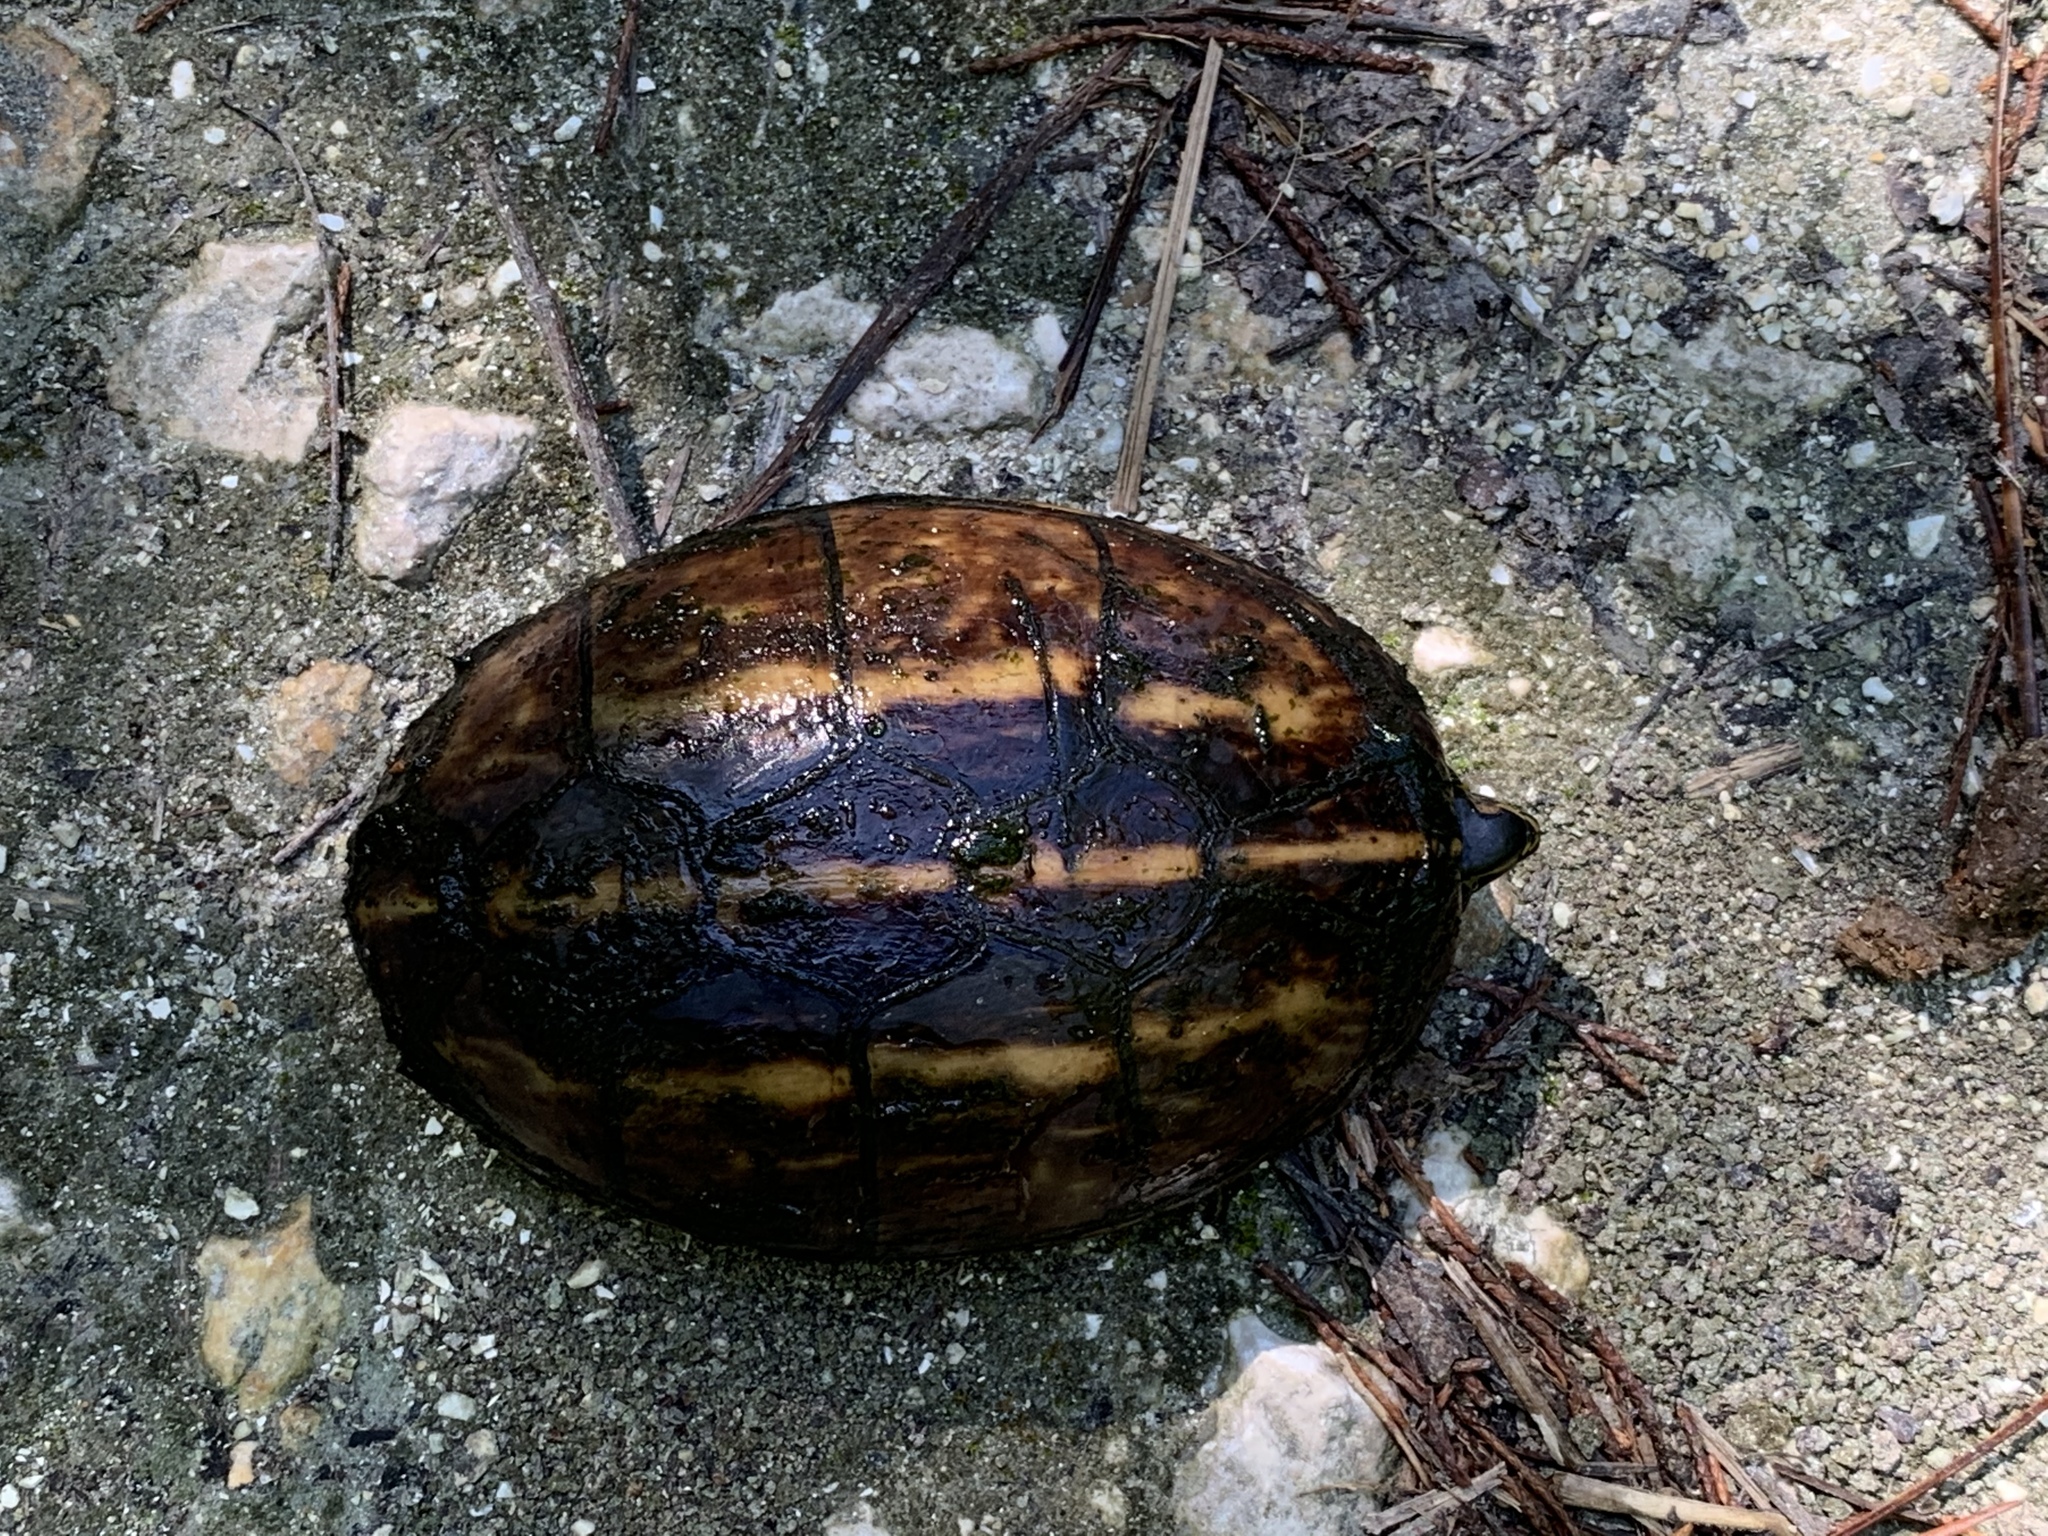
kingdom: Animalia
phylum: Chordata
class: Testudines
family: Kinosternidae
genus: Kinosternon
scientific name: Kinosternon baurii
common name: Striped mud turtle
